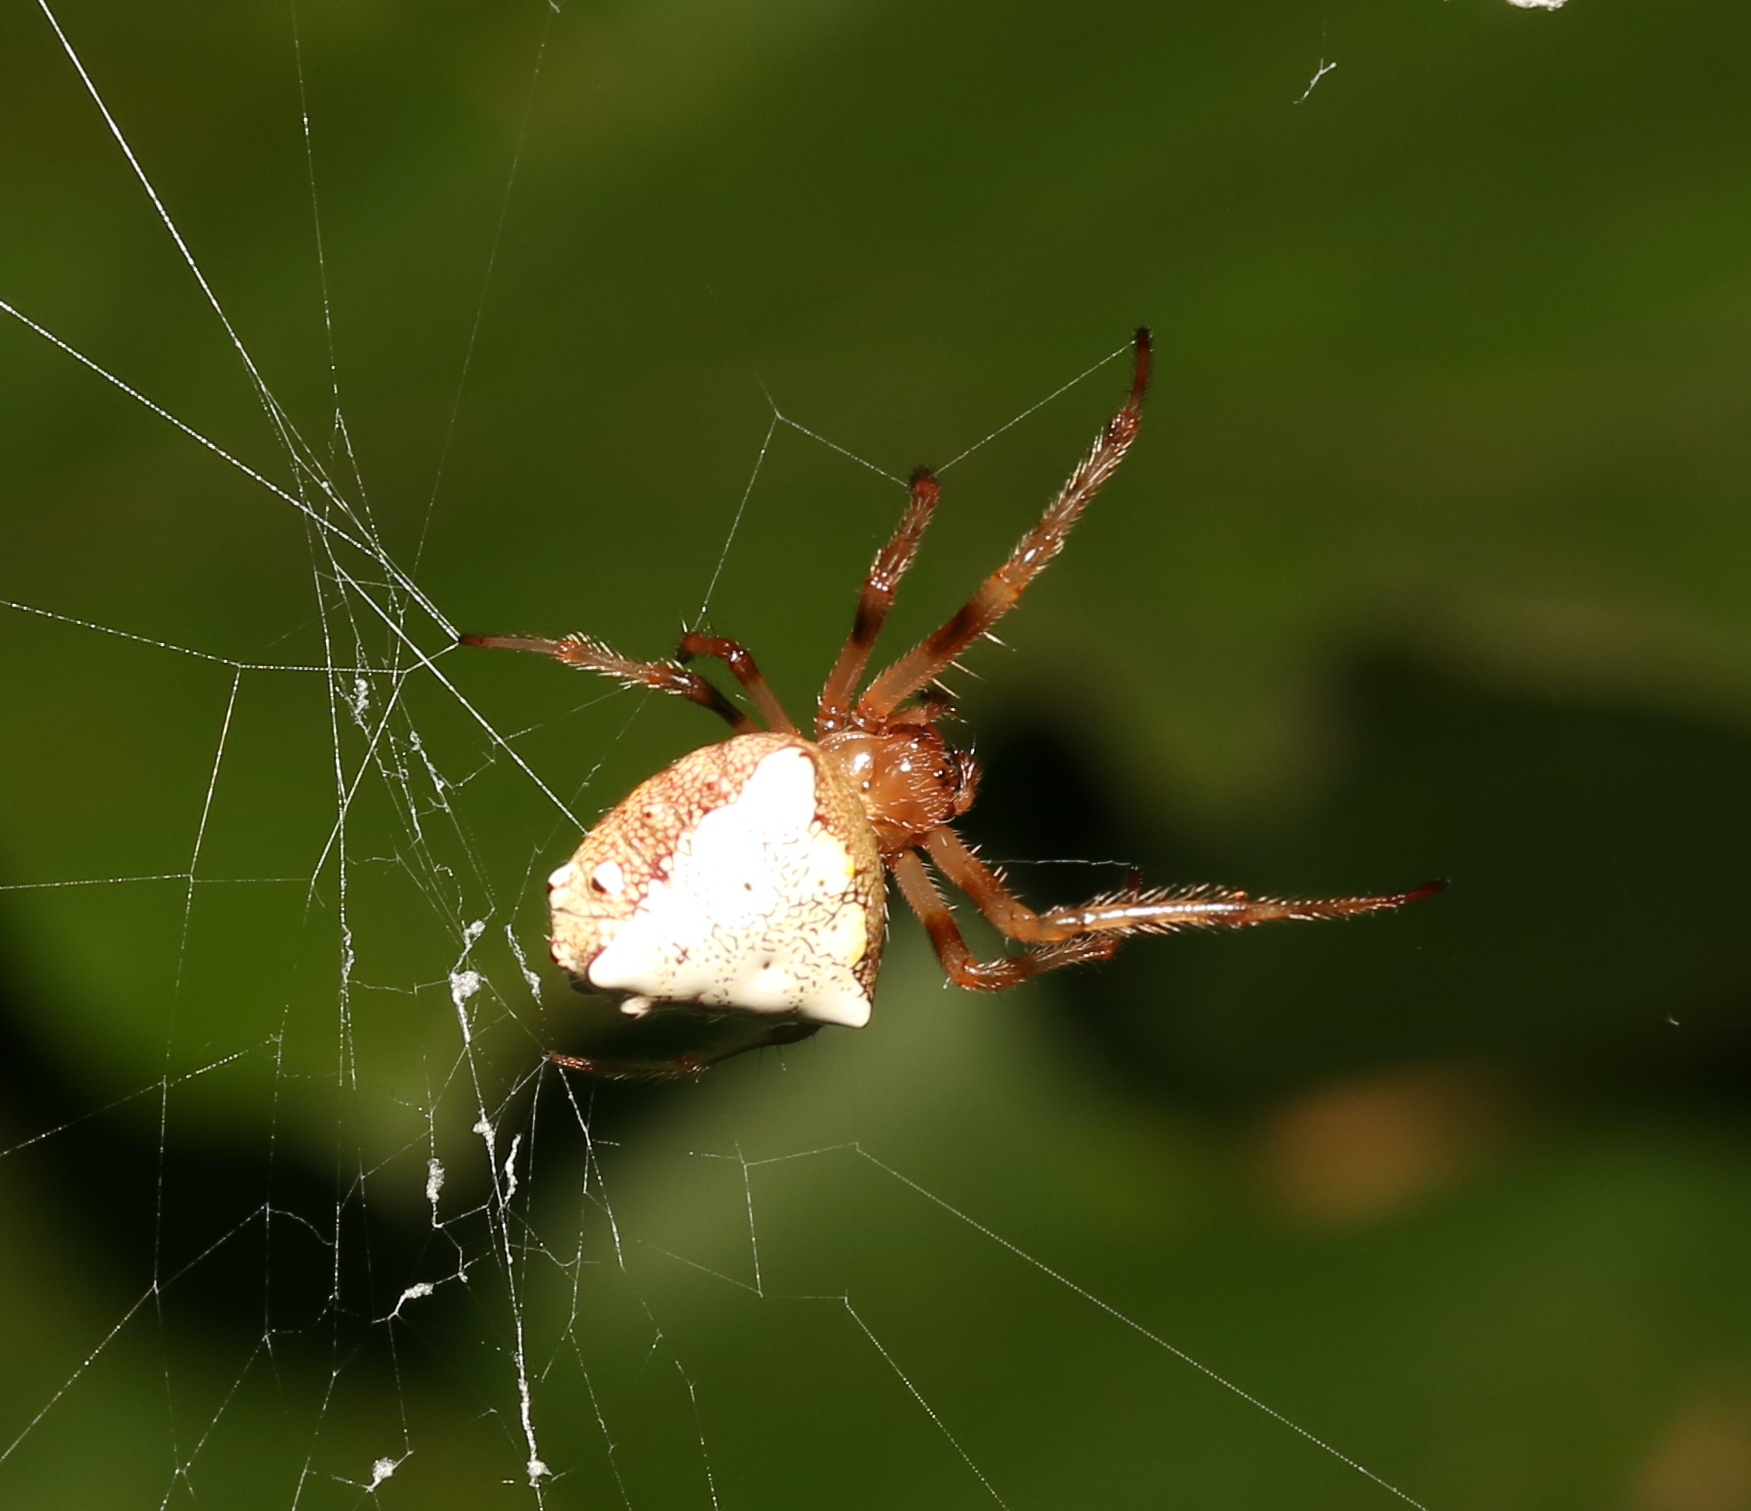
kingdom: Animalia
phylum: Arthropoda
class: Arachnida
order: Araneae
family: Araneidae
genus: Verrucosa
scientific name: Verrucosa arenata
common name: Orb weavers
